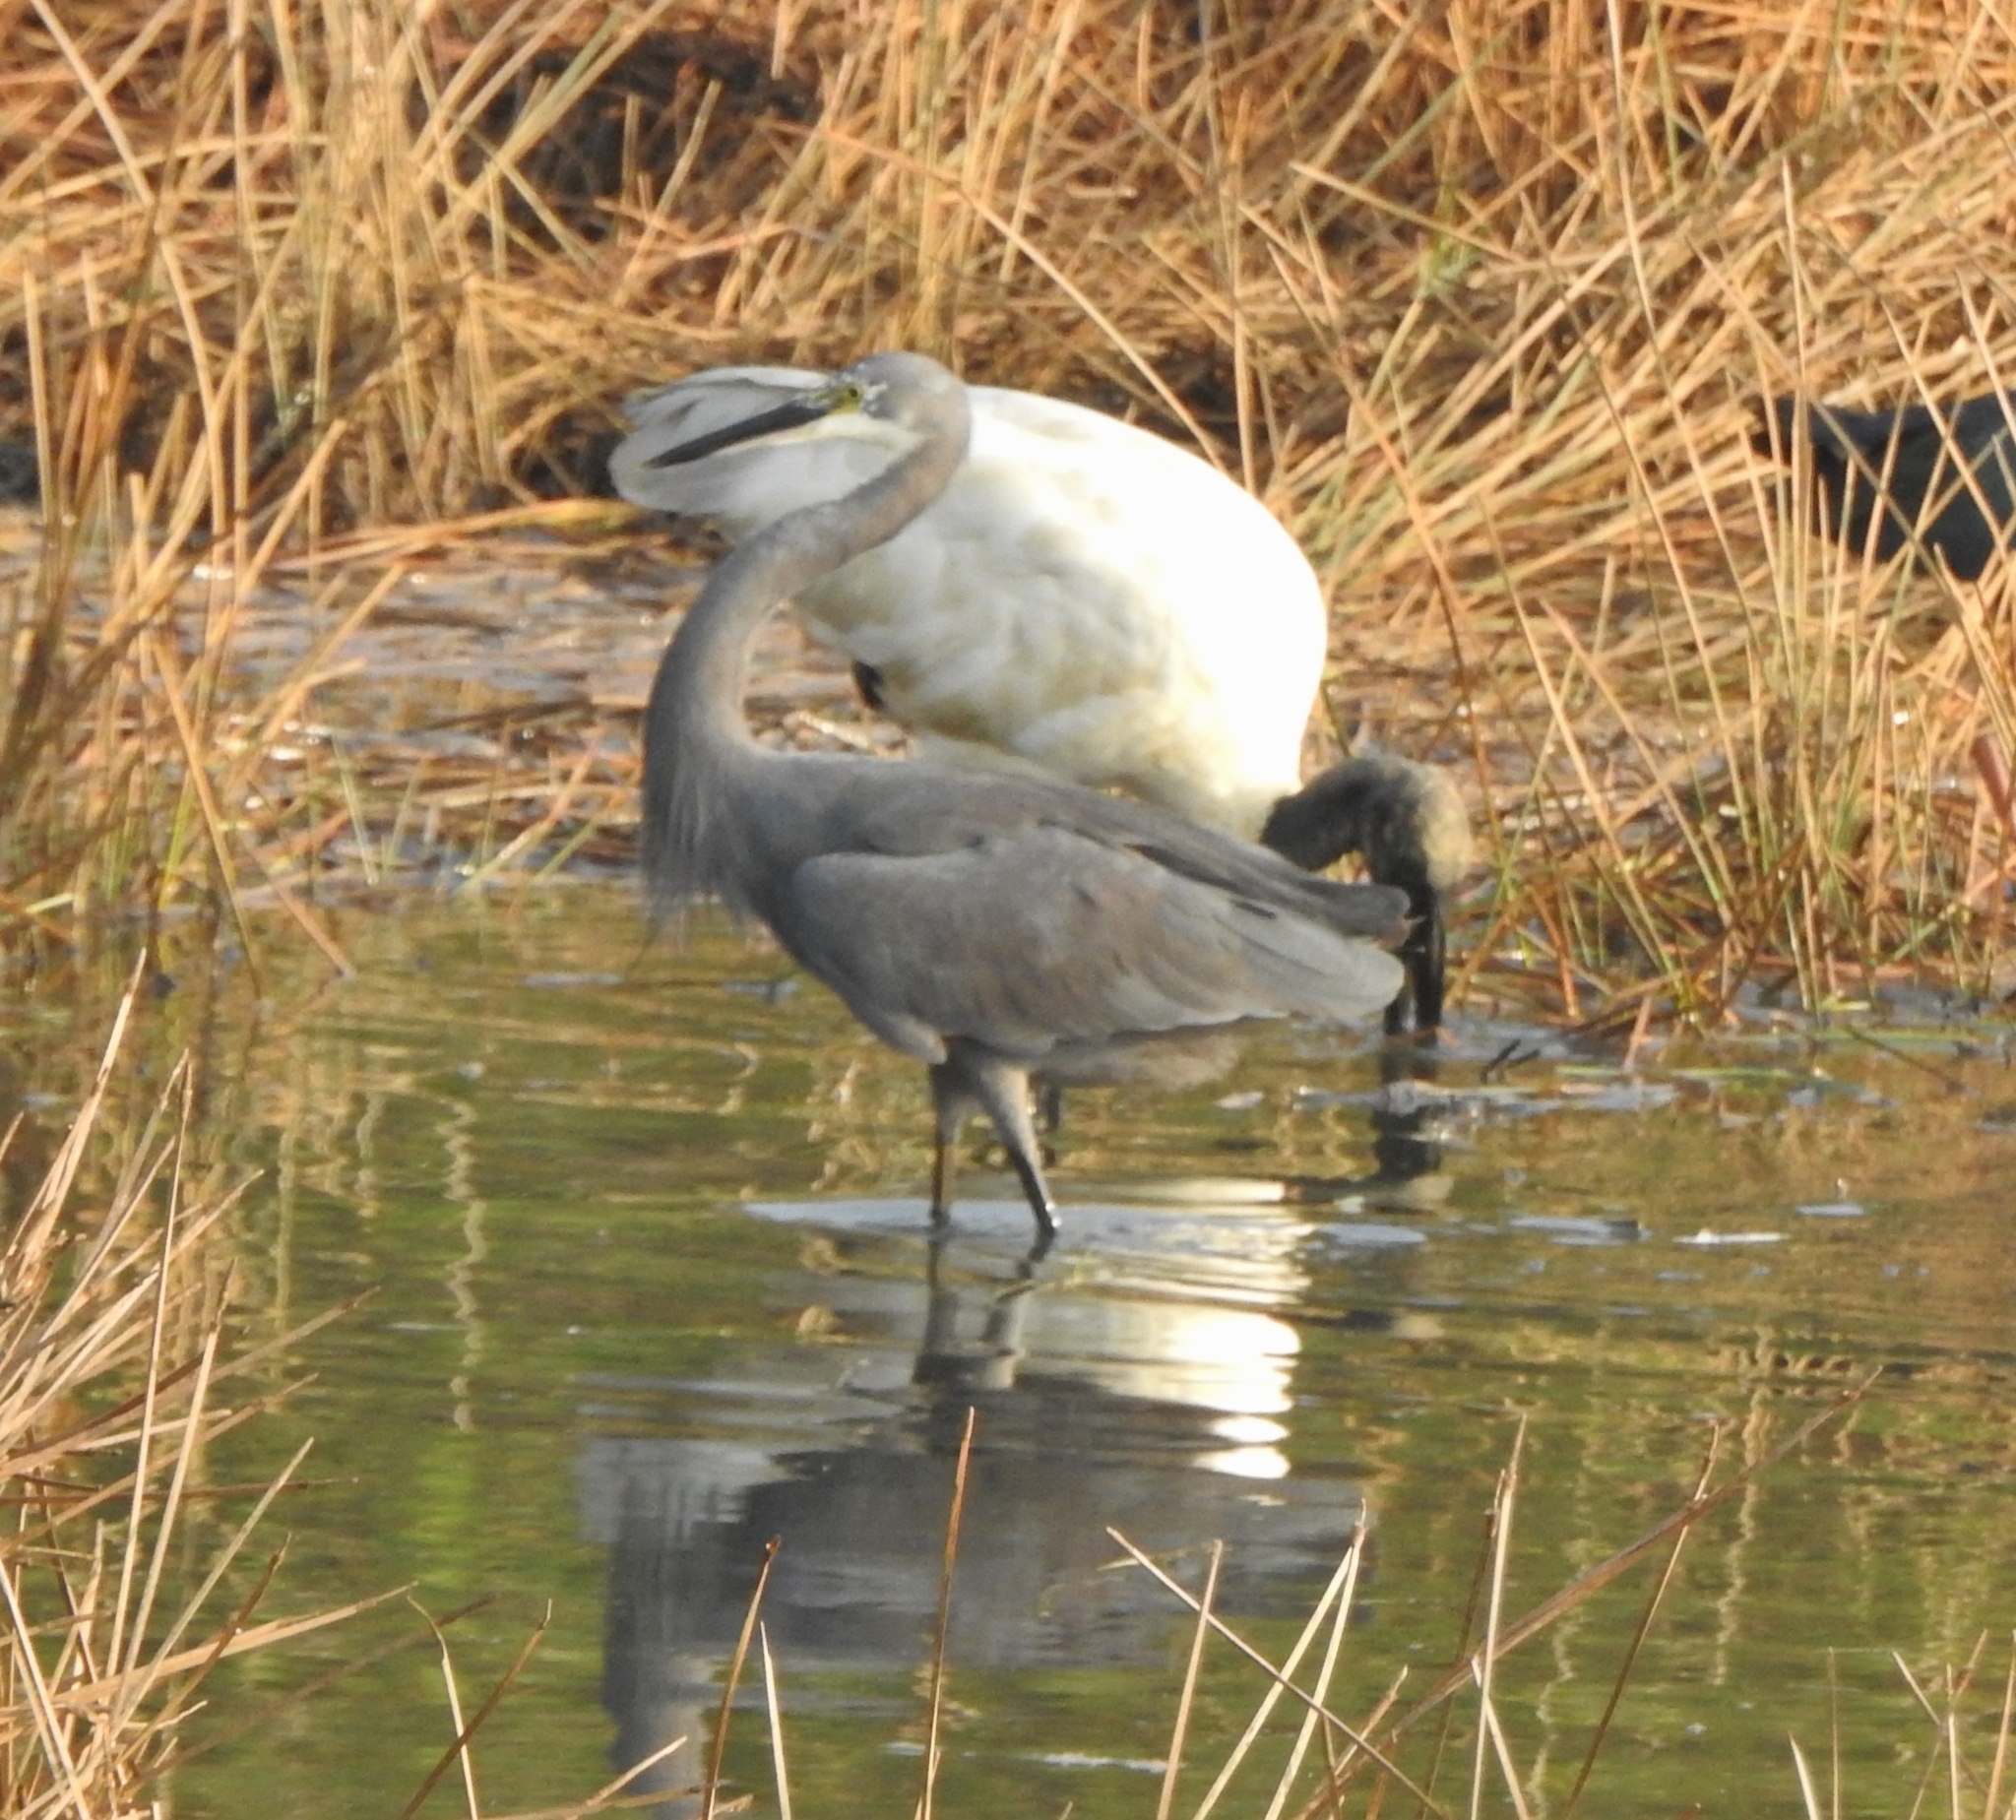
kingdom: Animalia
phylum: Chordata
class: Aves
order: Pelecaniformes
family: Ardeidae
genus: Egretta
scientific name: Egretta garzetta
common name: Little egret
